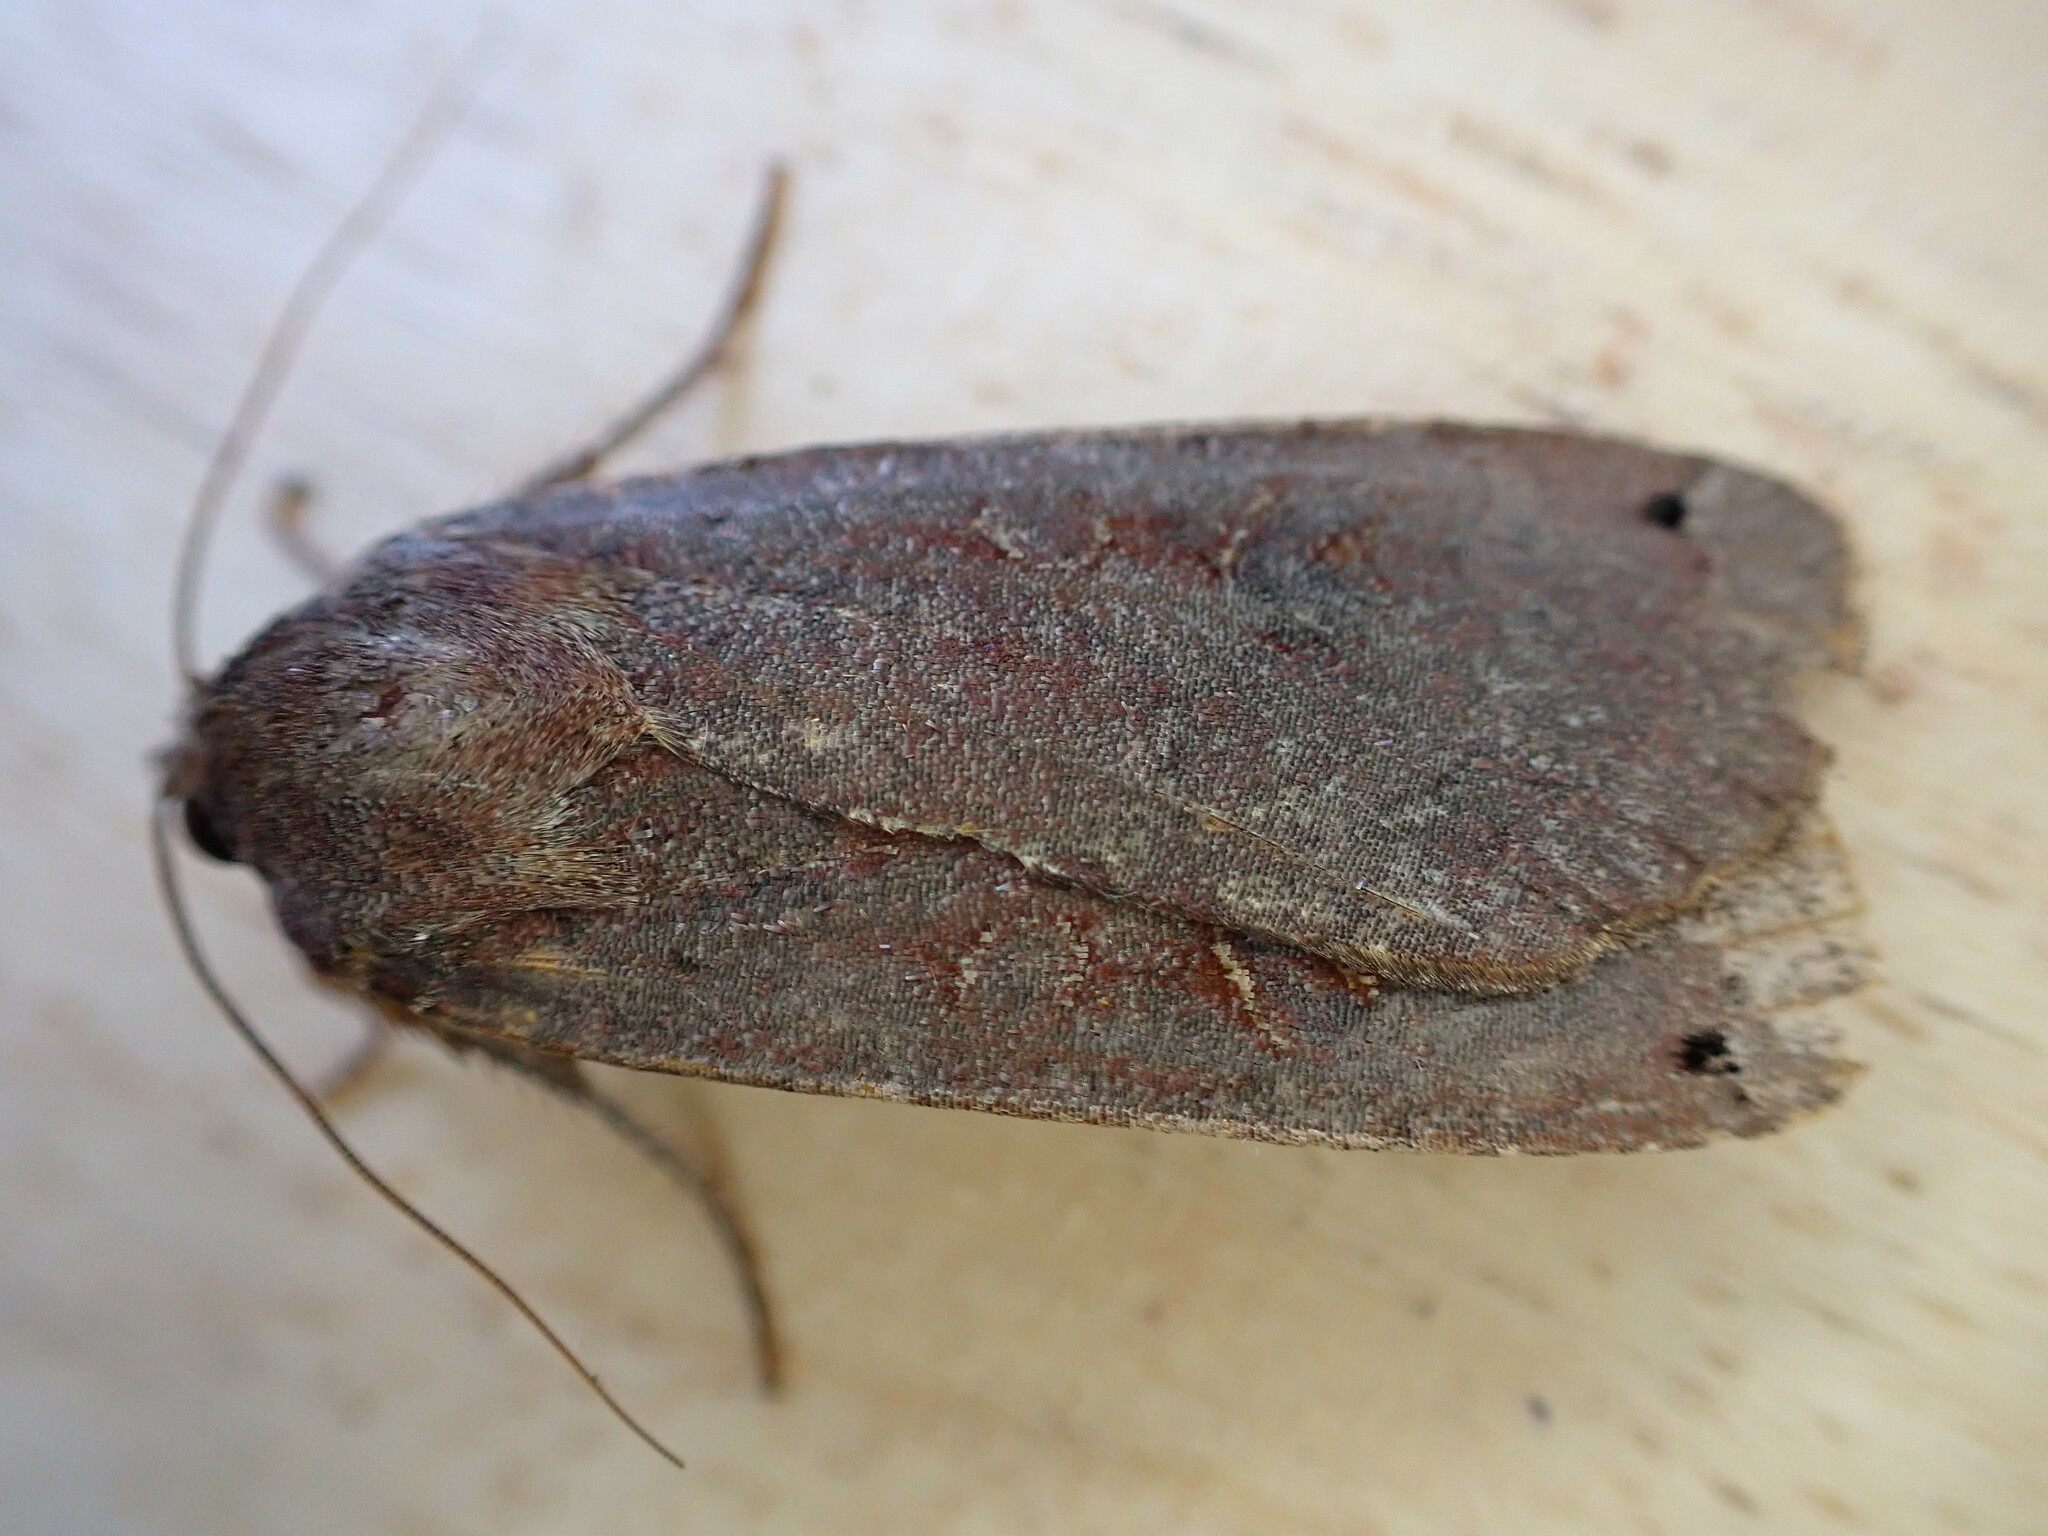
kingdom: Animalia
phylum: Arthropoda
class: Insecta
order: Lepidoptera
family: Noctuidae
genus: Noctua
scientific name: Noctua pronuba
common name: Large yellow underwing
